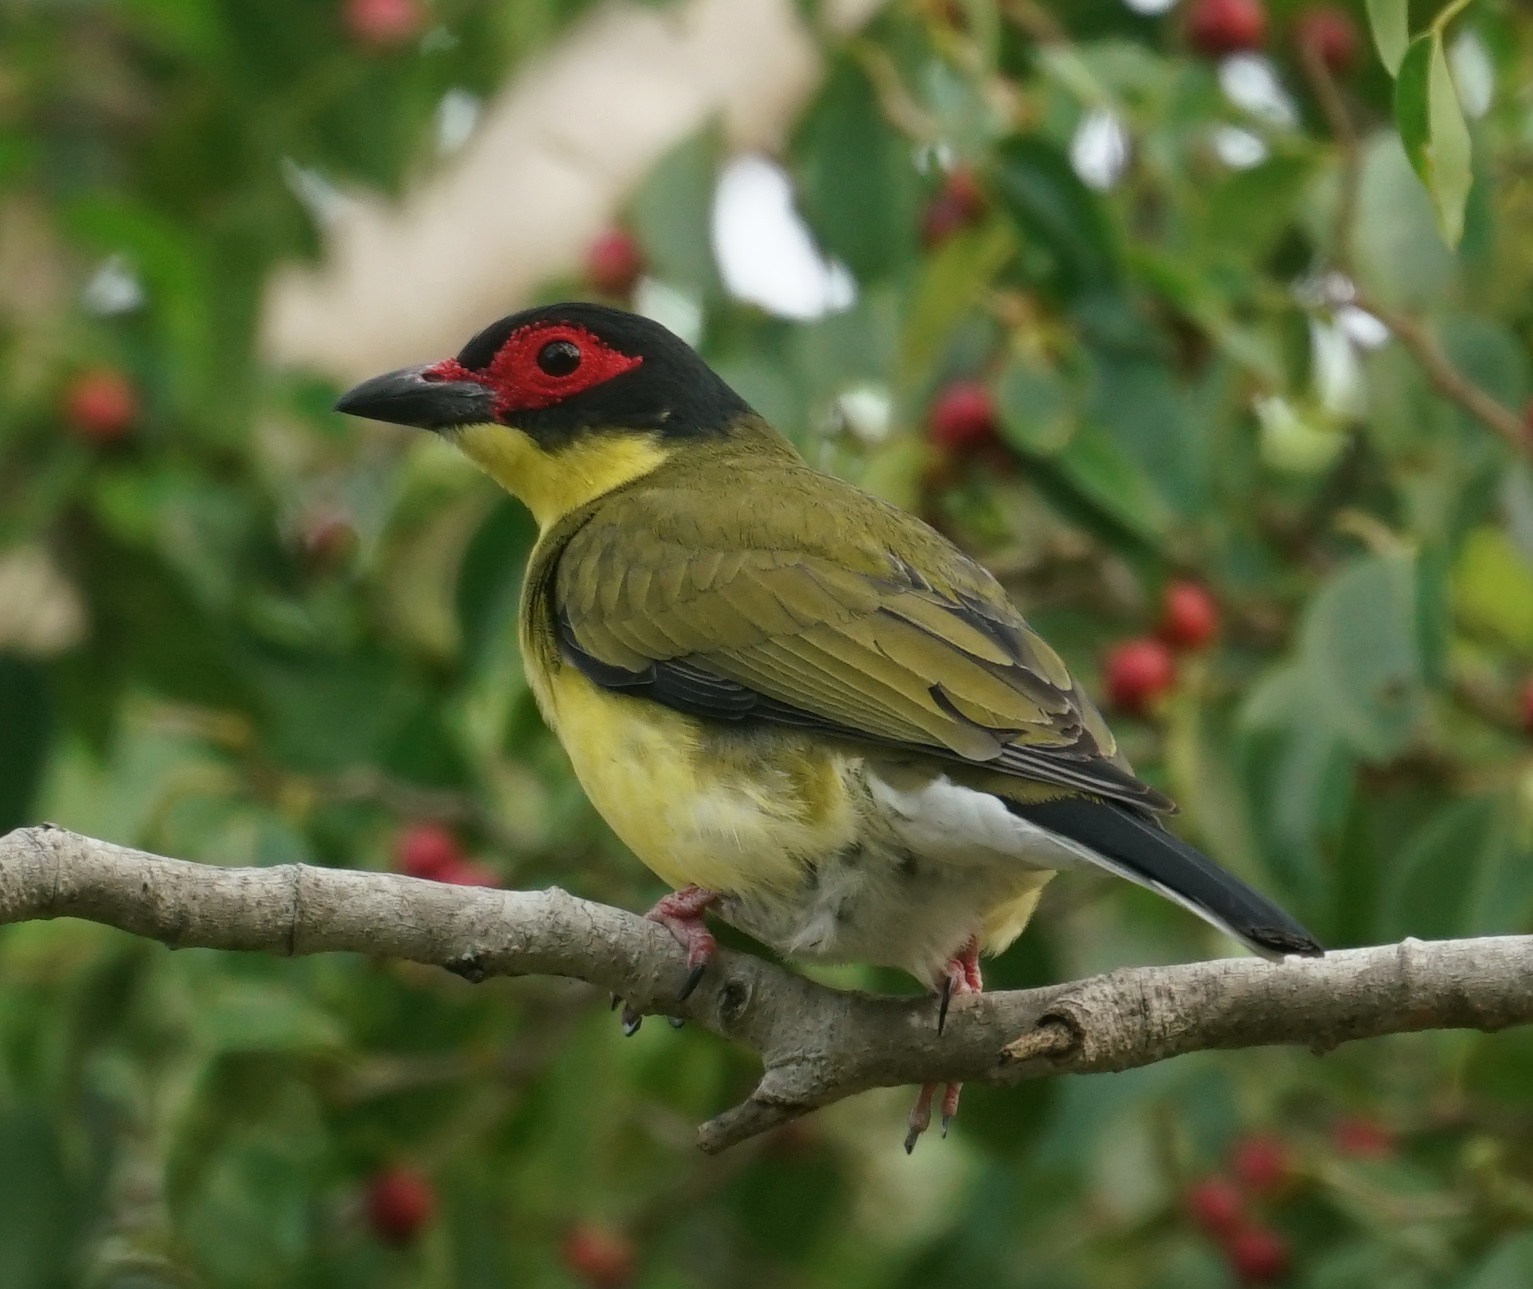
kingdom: Animalia
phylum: Chordata
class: Aves
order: Passeriformes
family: Oriolidae
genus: Sphecotheres
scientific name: Sphecotheres vieilloti
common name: Australasian figbird
